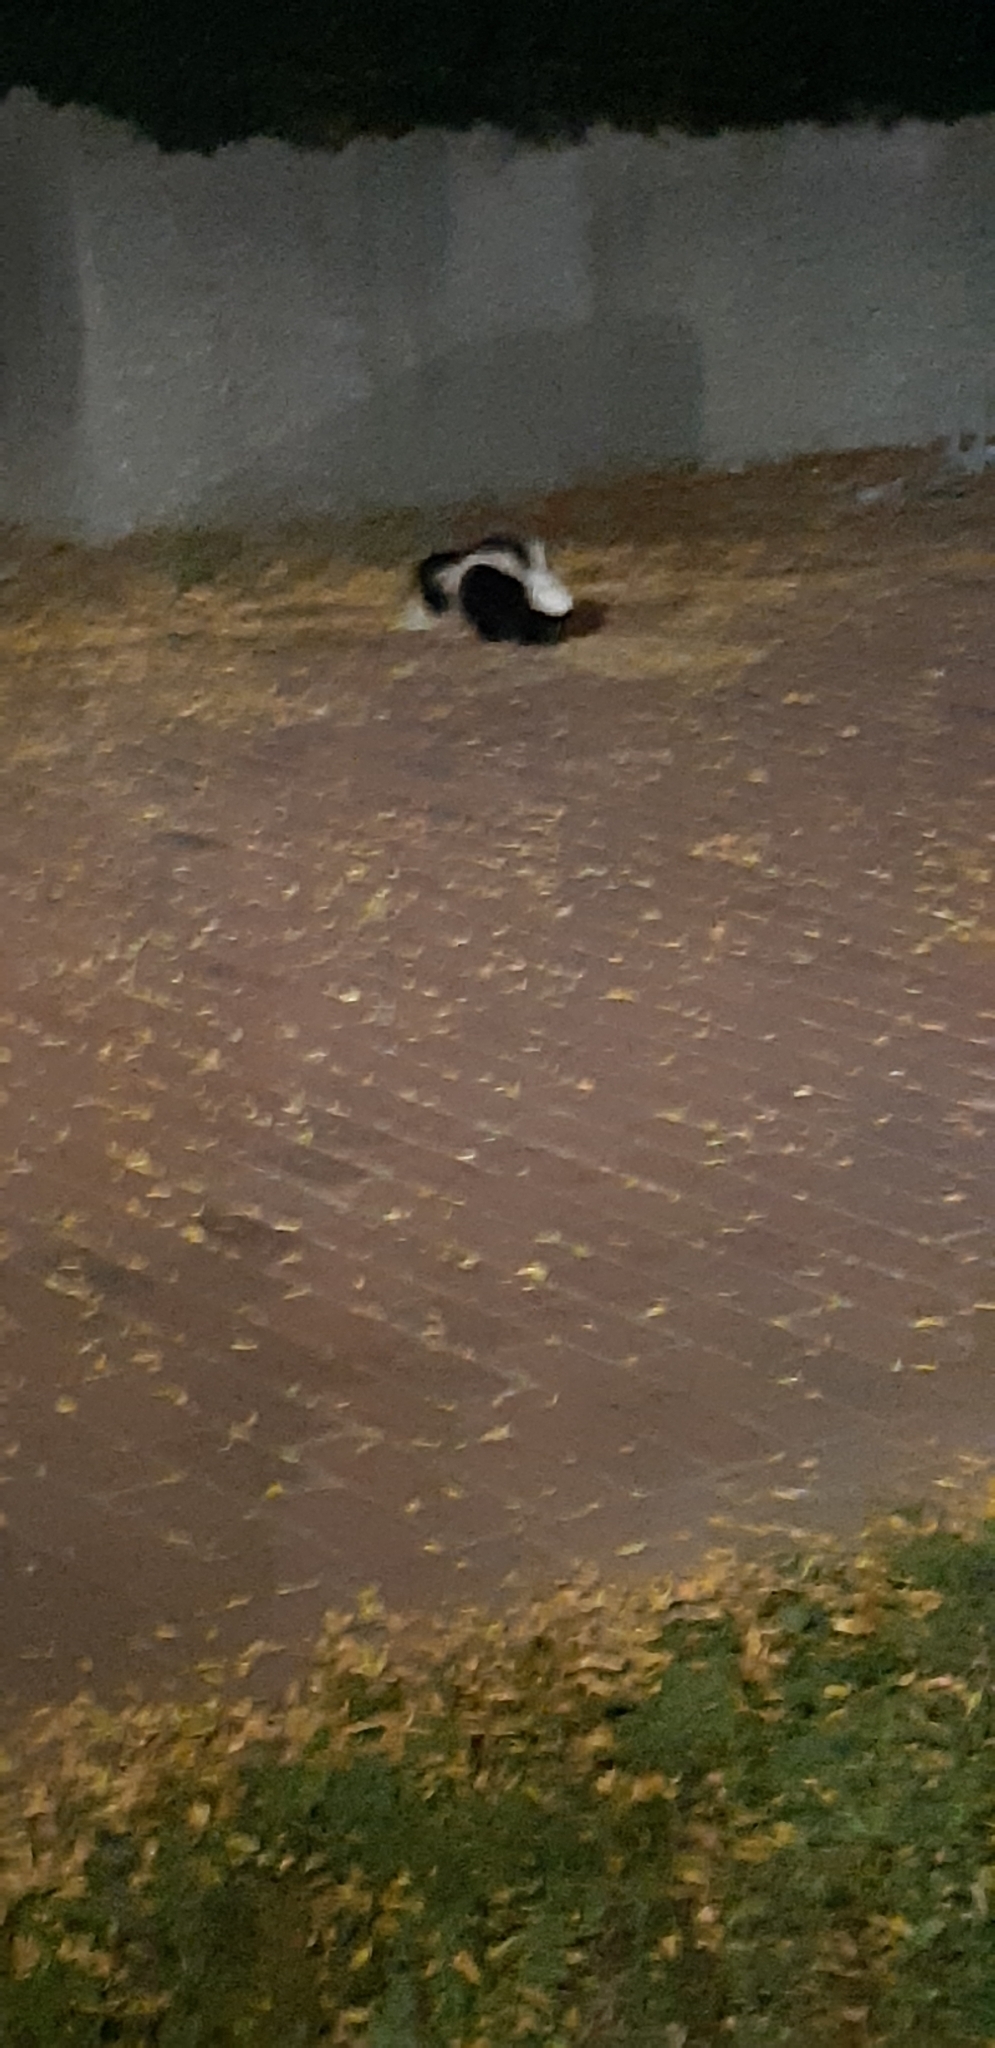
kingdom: Animalia
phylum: Chordata
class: Mammalia
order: Carnivora
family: Mephitidae
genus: Mephitis
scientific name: Mephitis mephitis
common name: Striped skunk
